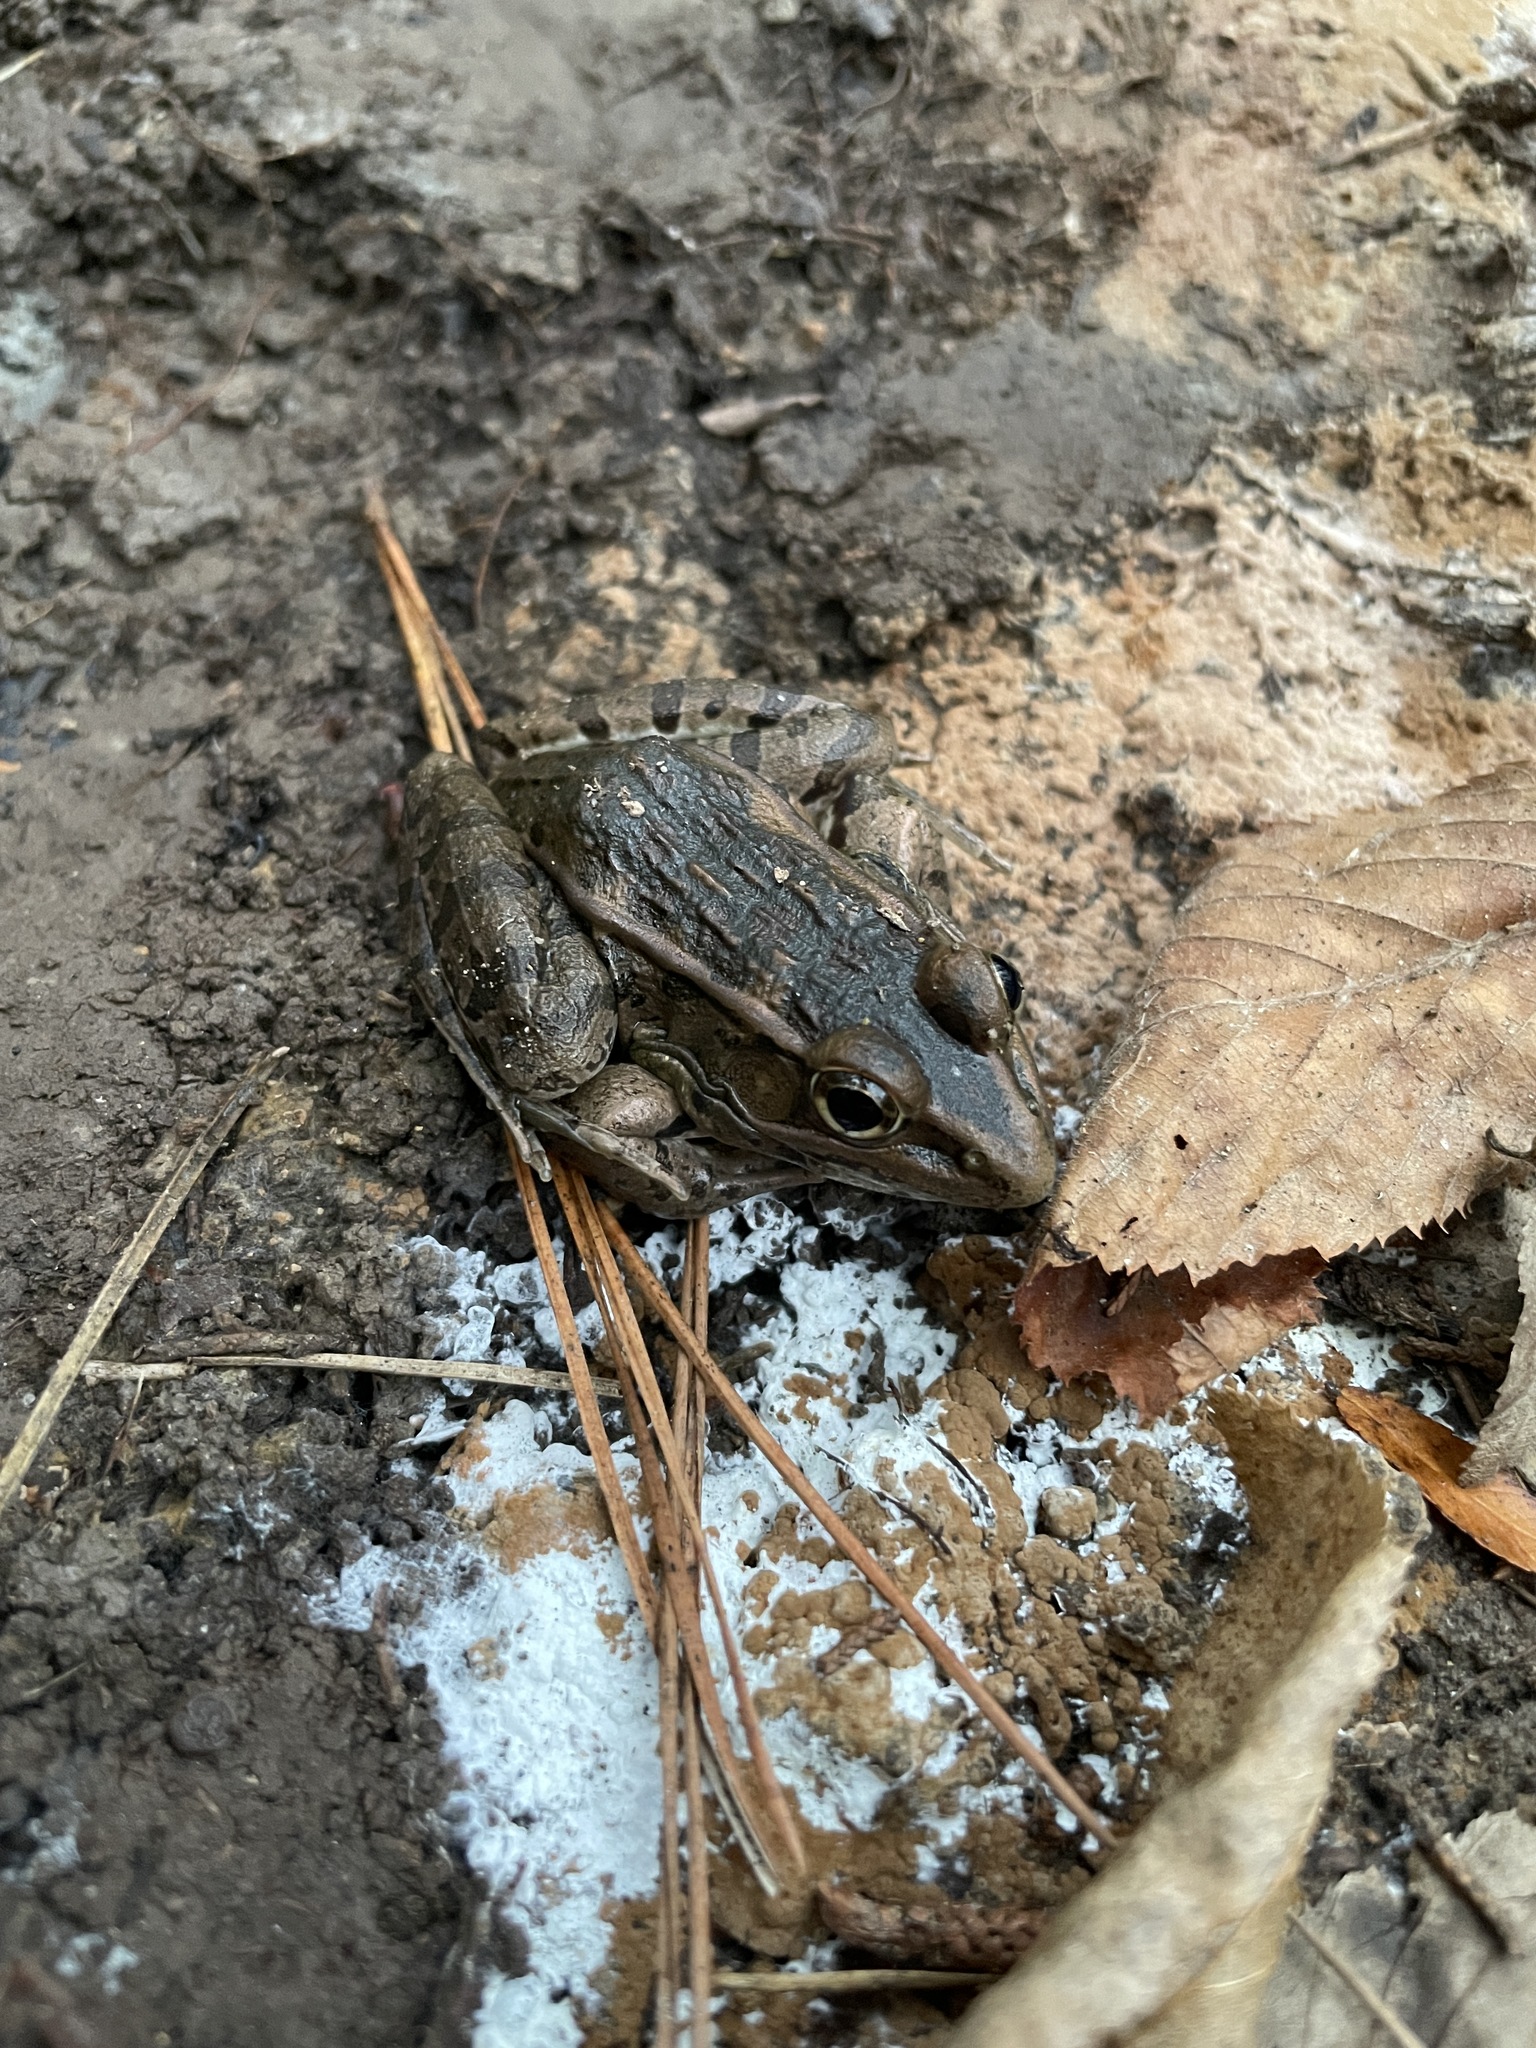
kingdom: Animalia
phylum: Chordata
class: Amphibia
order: Anura
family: Ranidae
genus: Lithobates
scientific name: Lithobates sphenocephalus
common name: Southern leopard frog
